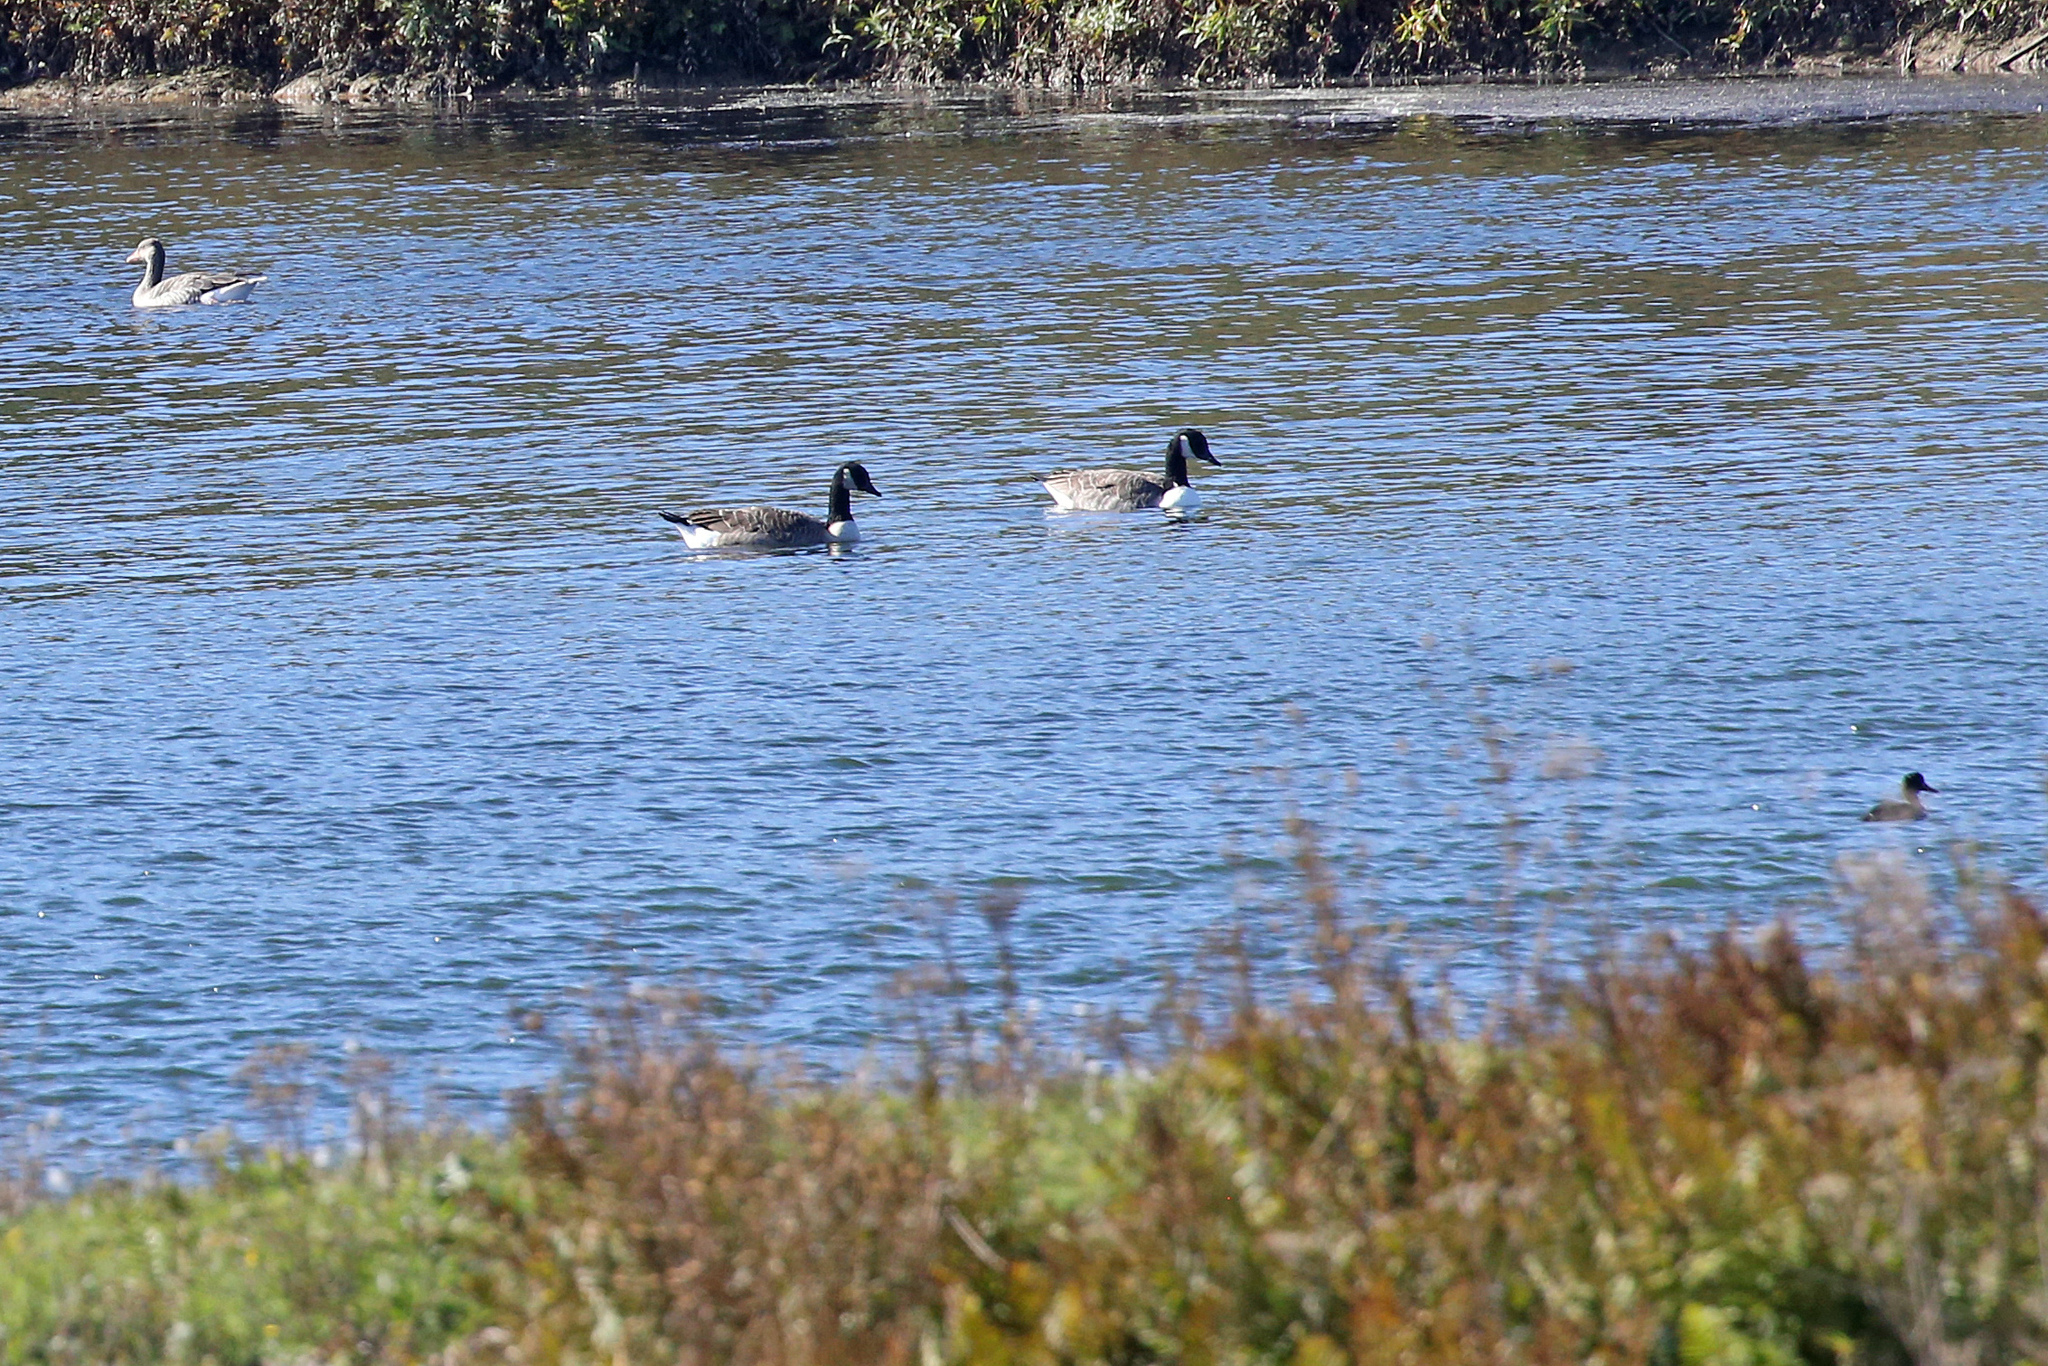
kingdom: Animalia
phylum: Chordata
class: Aves
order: Anseriformes
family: Anatidae
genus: Branta
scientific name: Branta canadensis
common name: Canada goose
